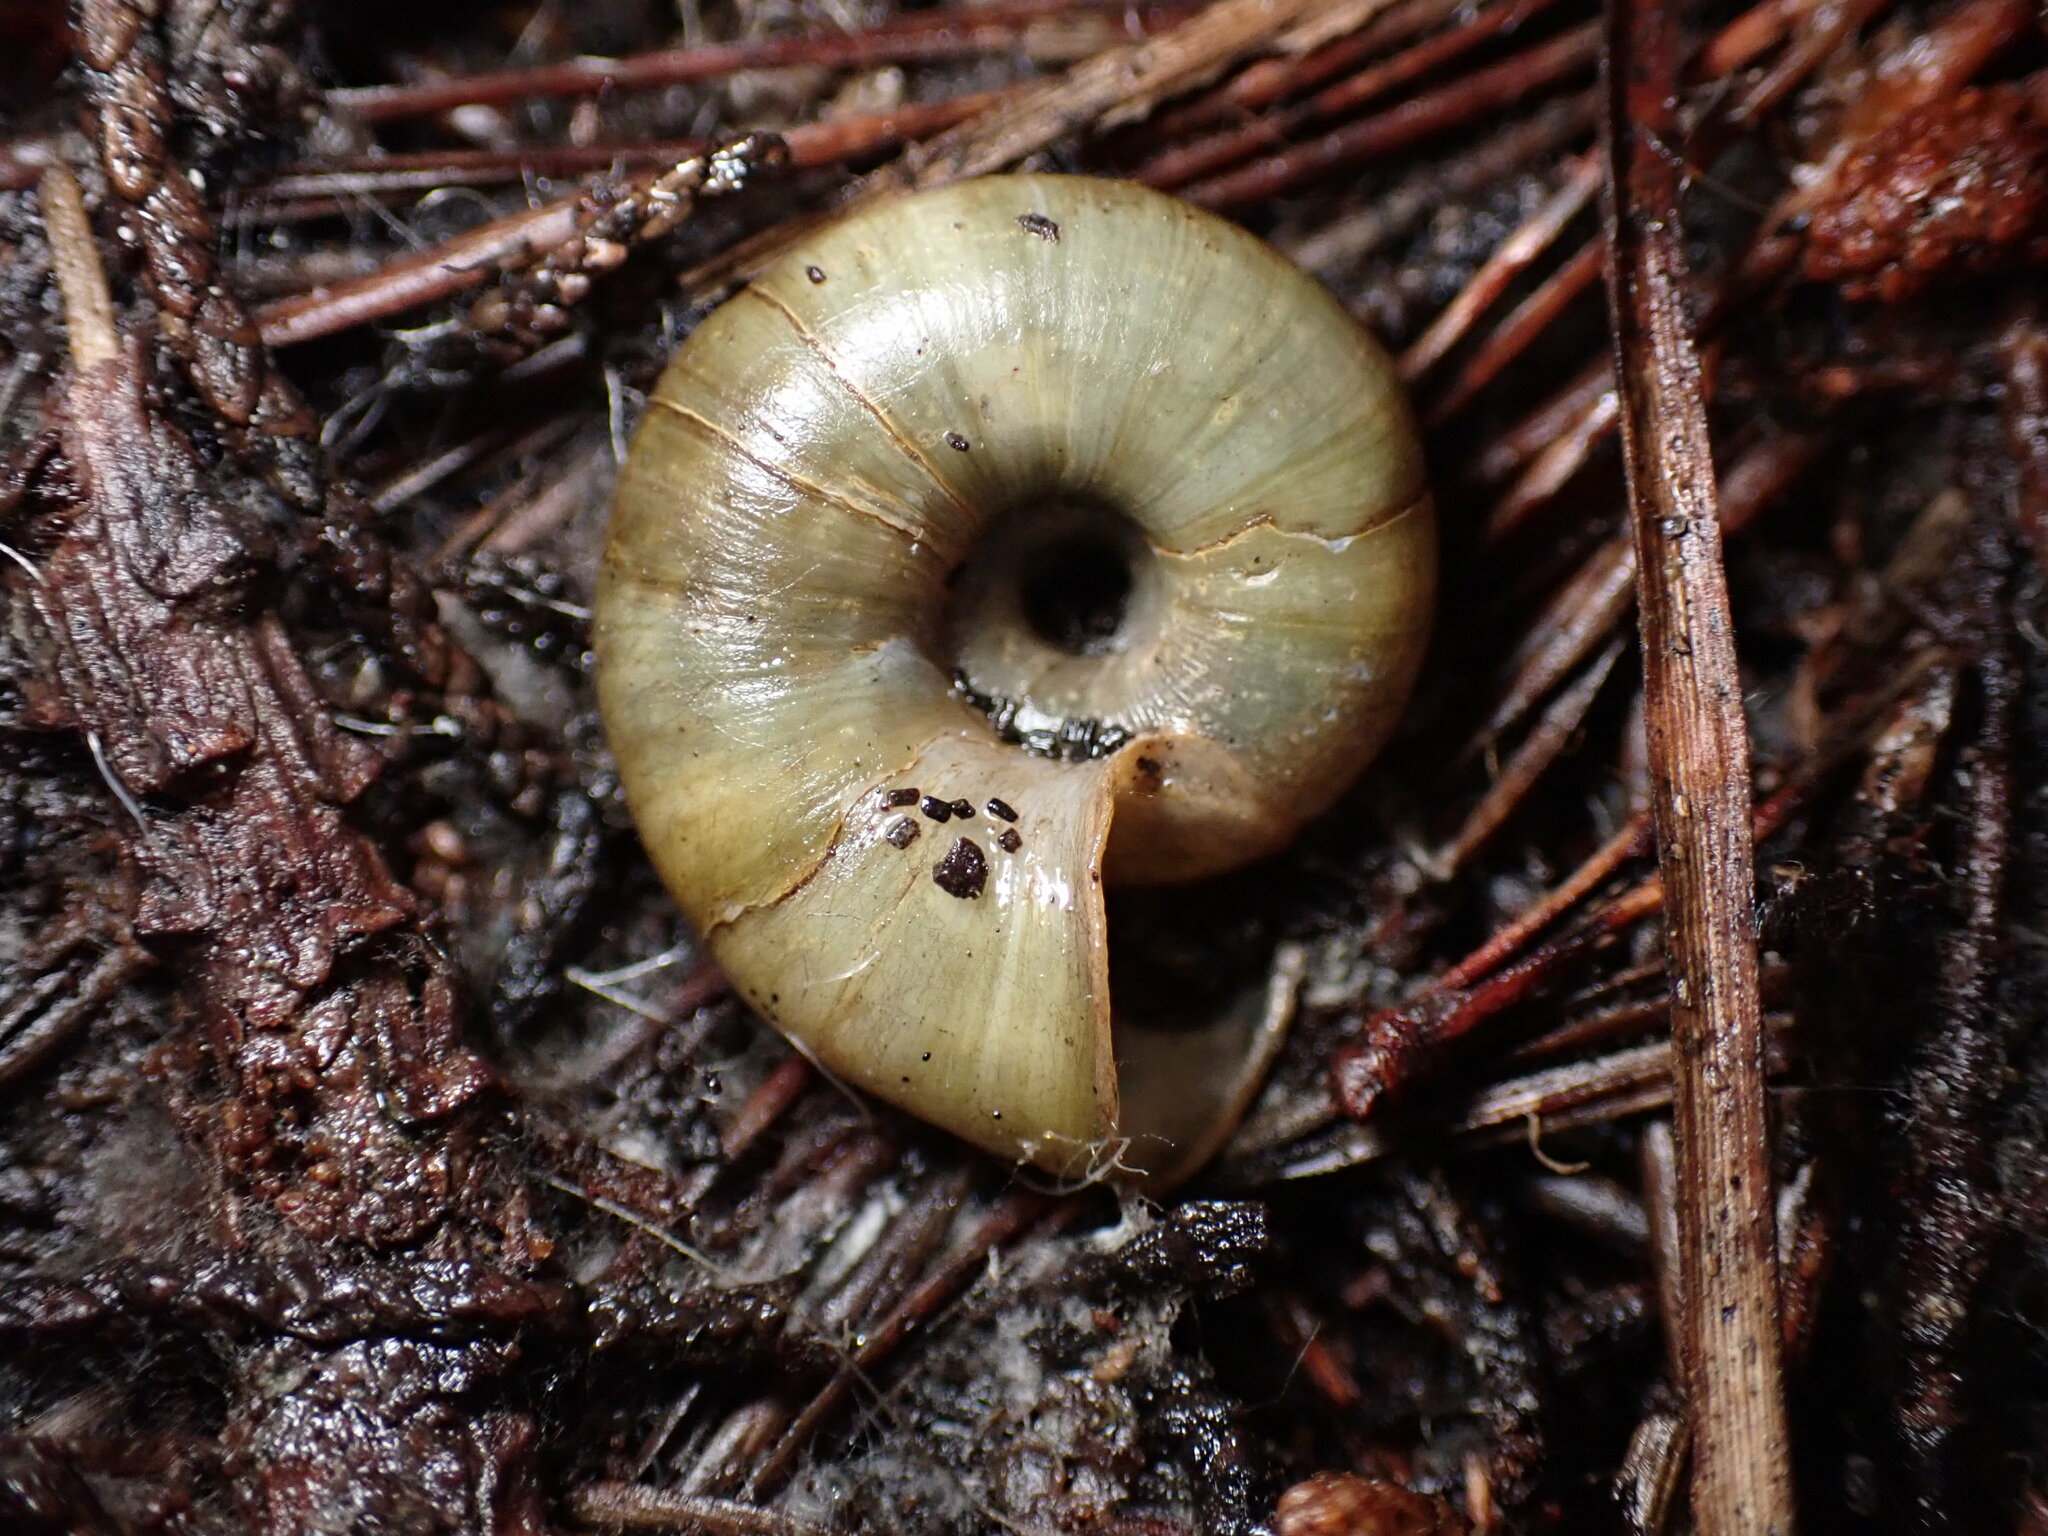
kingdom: Animalia
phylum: Mollusca
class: Gastropoda
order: Stylommatophora
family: Haplotrematidae
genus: Haplotrema
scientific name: Haplotrema minimum
